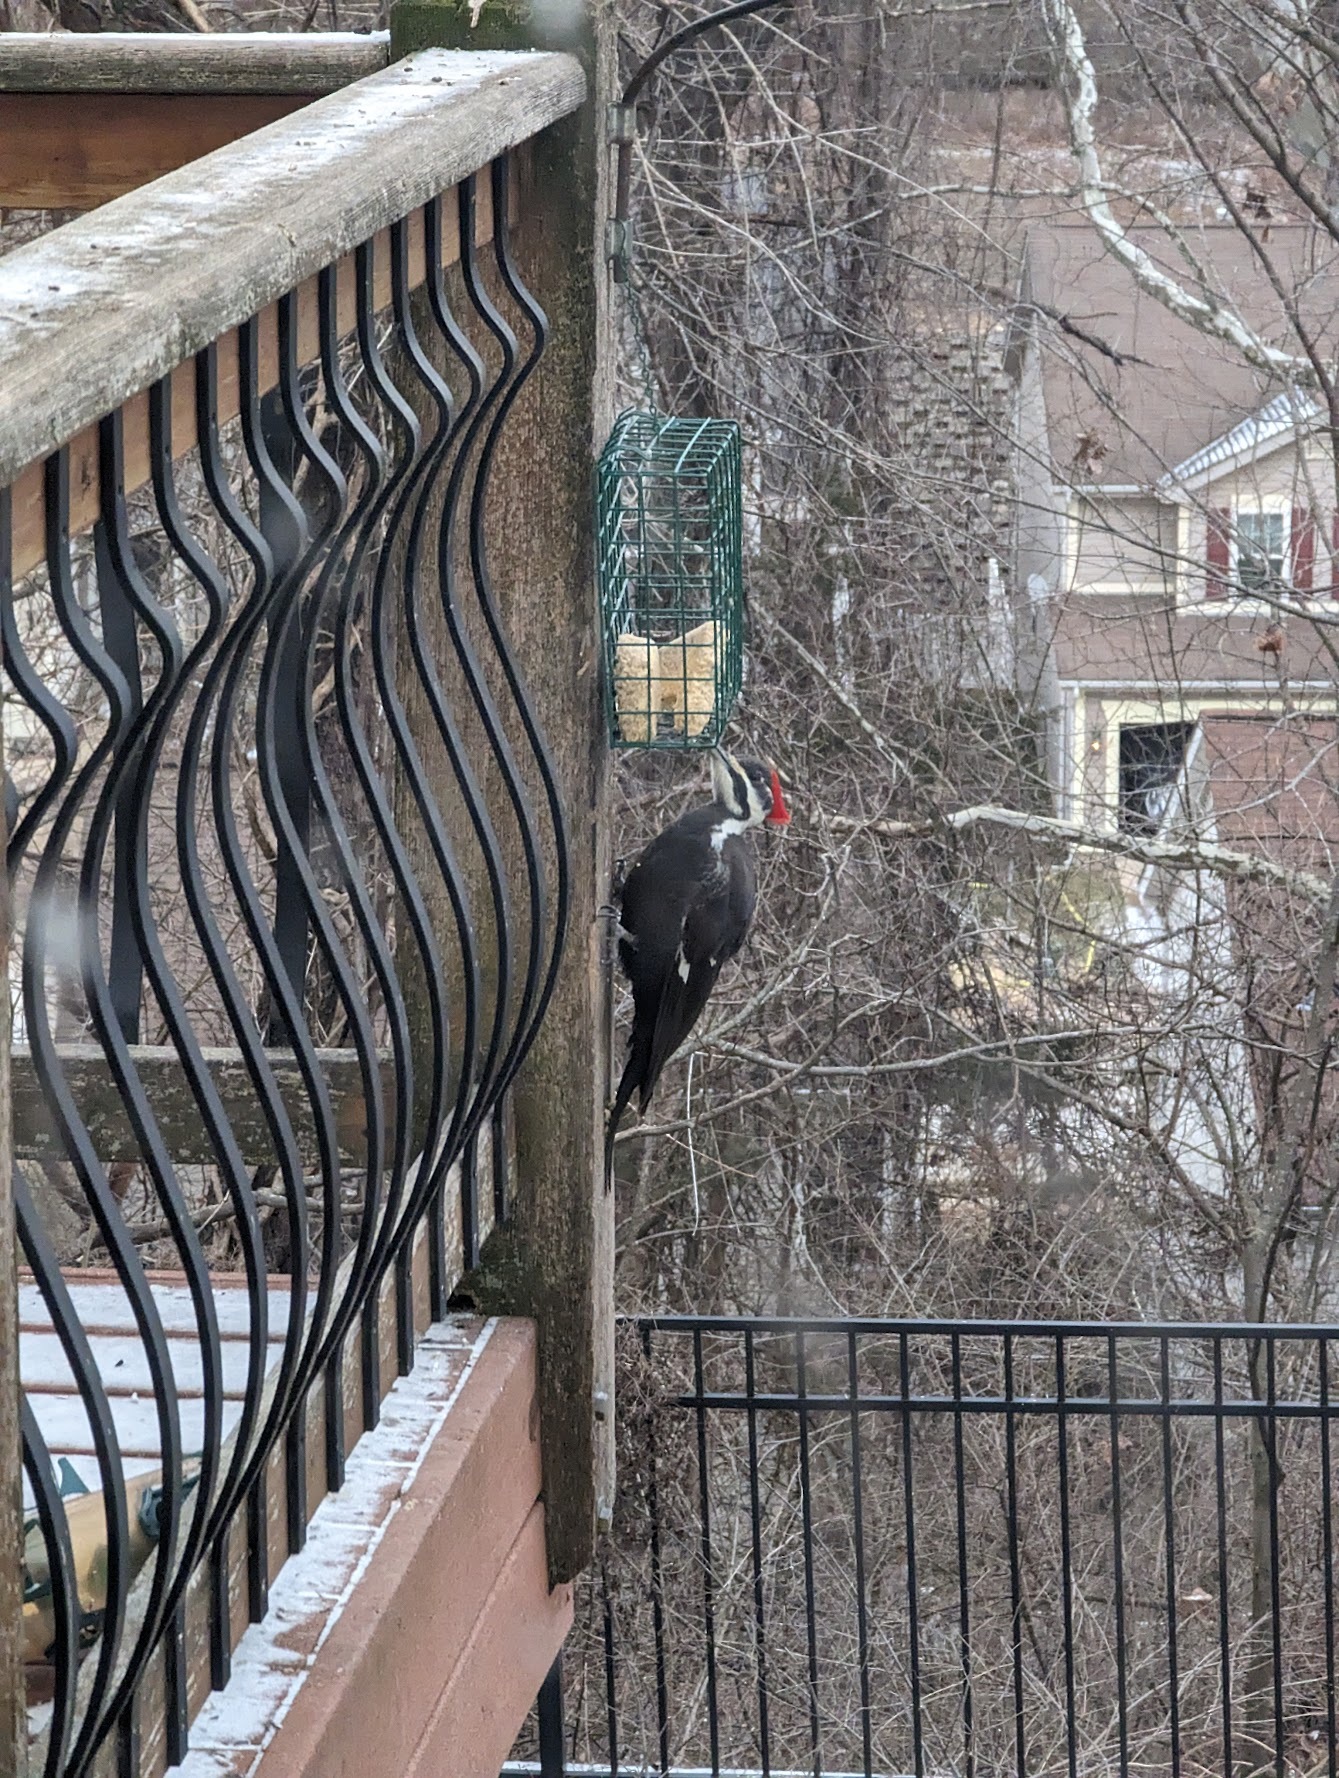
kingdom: Animalia
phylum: Chordata
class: Aves
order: Piciformes
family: Picidae
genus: Dryocopus
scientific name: Dryocopus pileatus
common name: Pileated woodpecker
